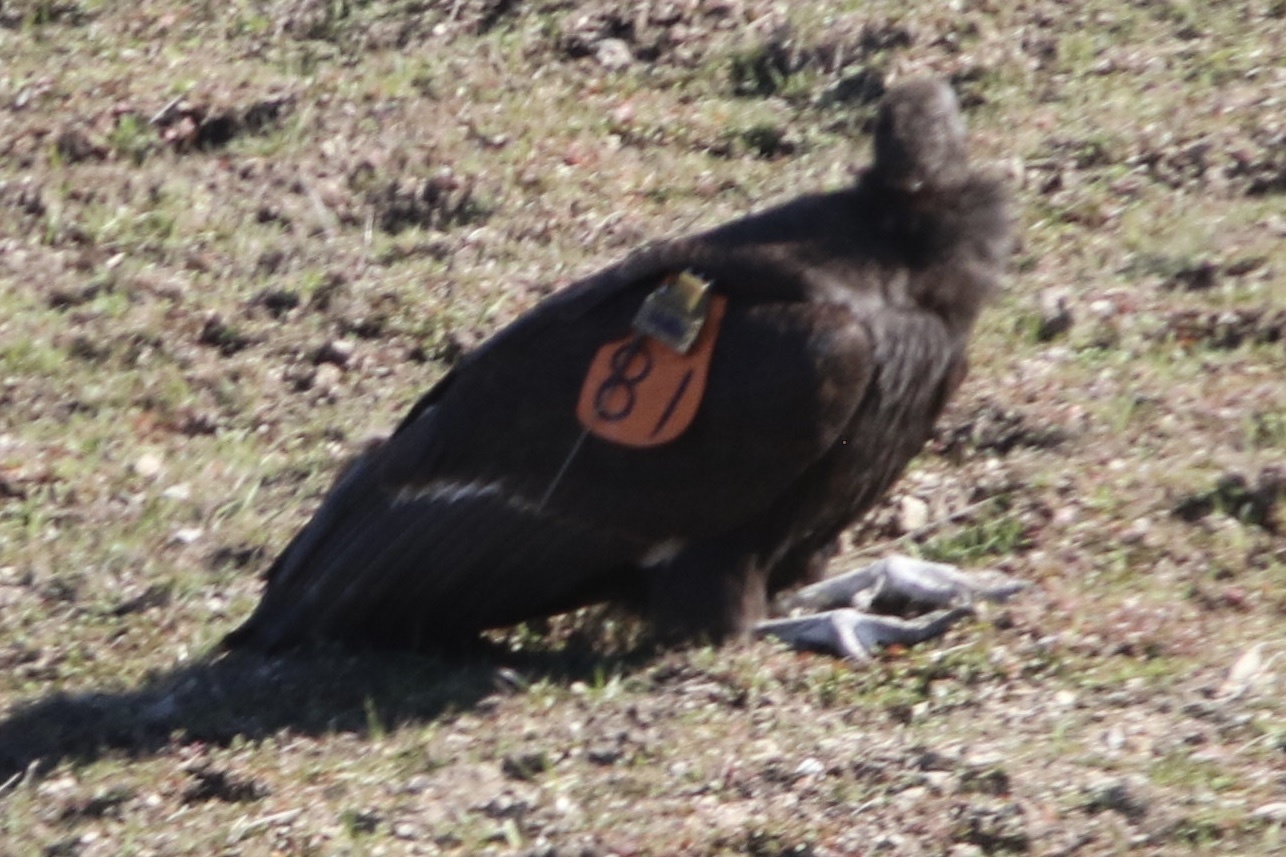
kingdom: Animalia
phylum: Chordata
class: Aves
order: Accipitriformes
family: Cathartidae
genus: Gymnogyps
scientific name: Gymnogyps californianus
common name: California condor
